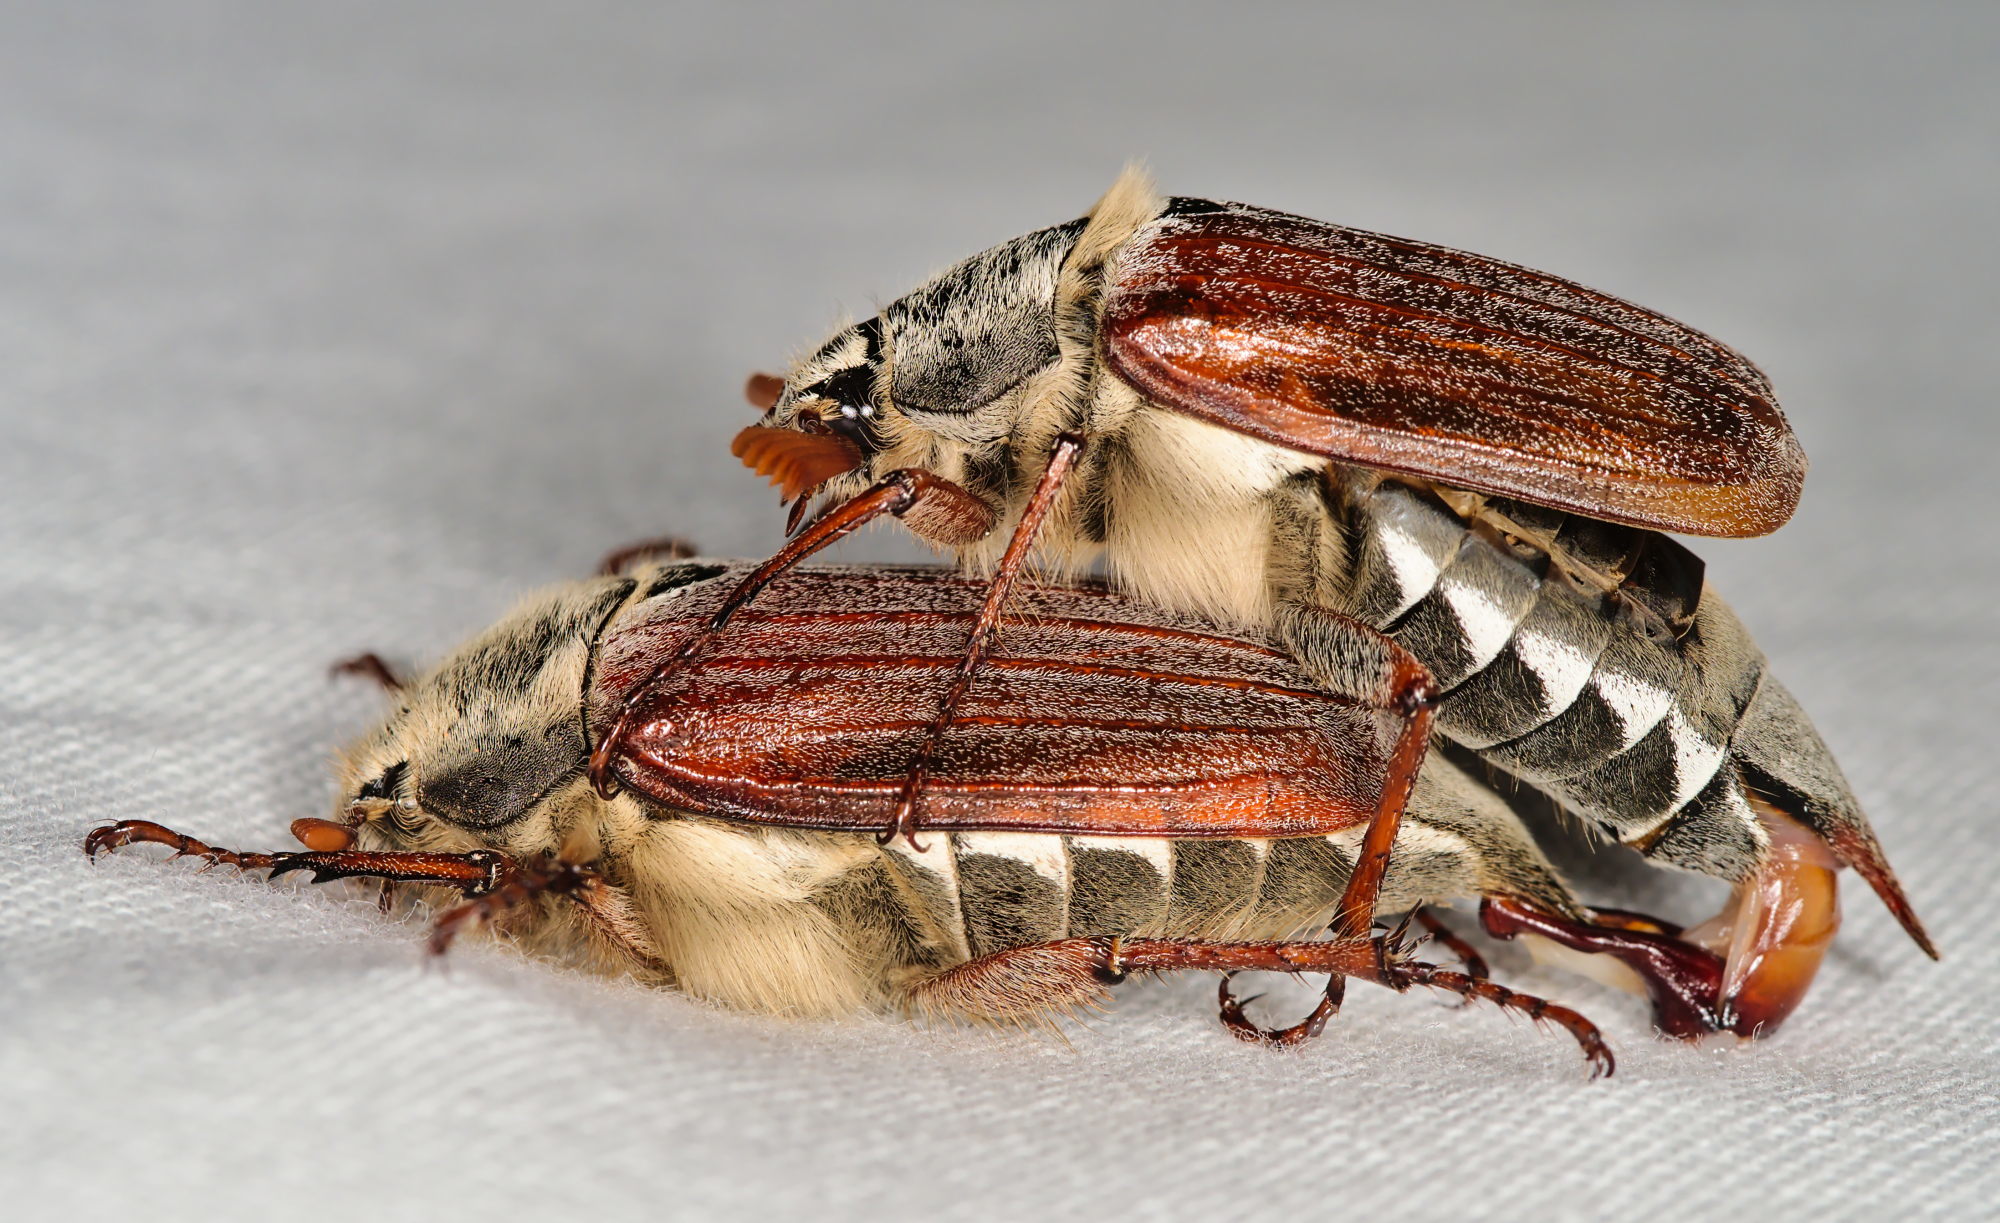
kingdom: Animalia
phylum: Arthropoda
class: Insecta
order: Coleoptera
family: Scarabaeidae
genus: Melolontha
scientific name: Melolontha melolontha
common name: Cockchafer maybeetle
